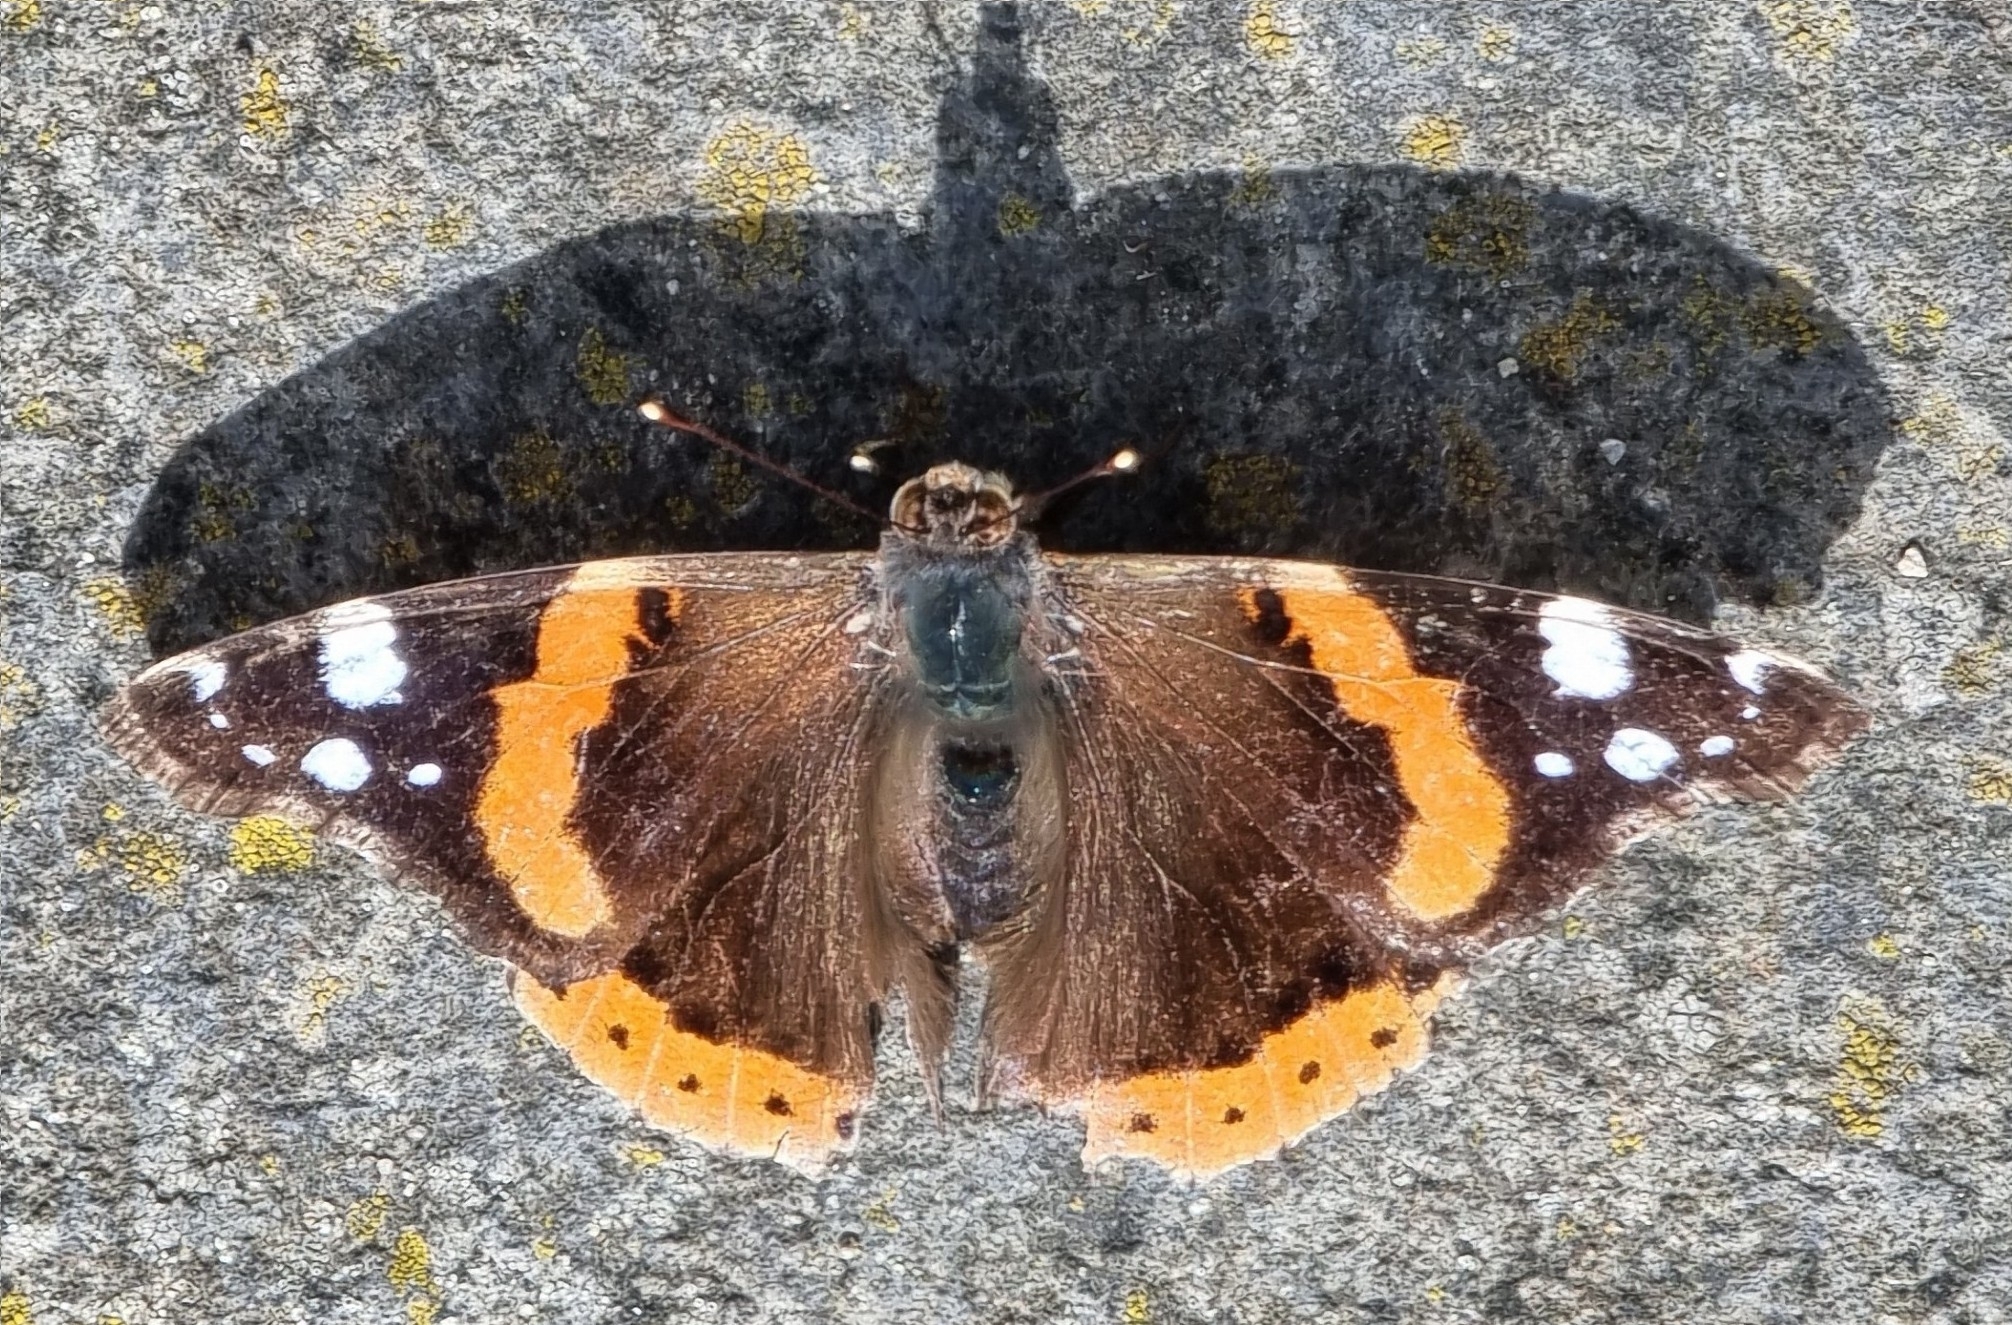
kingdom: Animalia
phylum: Arthropoda
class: Insecta
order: Lepidoptera
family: Nymphalidae
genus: Vanessa
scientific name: Vanessa atalanta
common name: Red admiral
